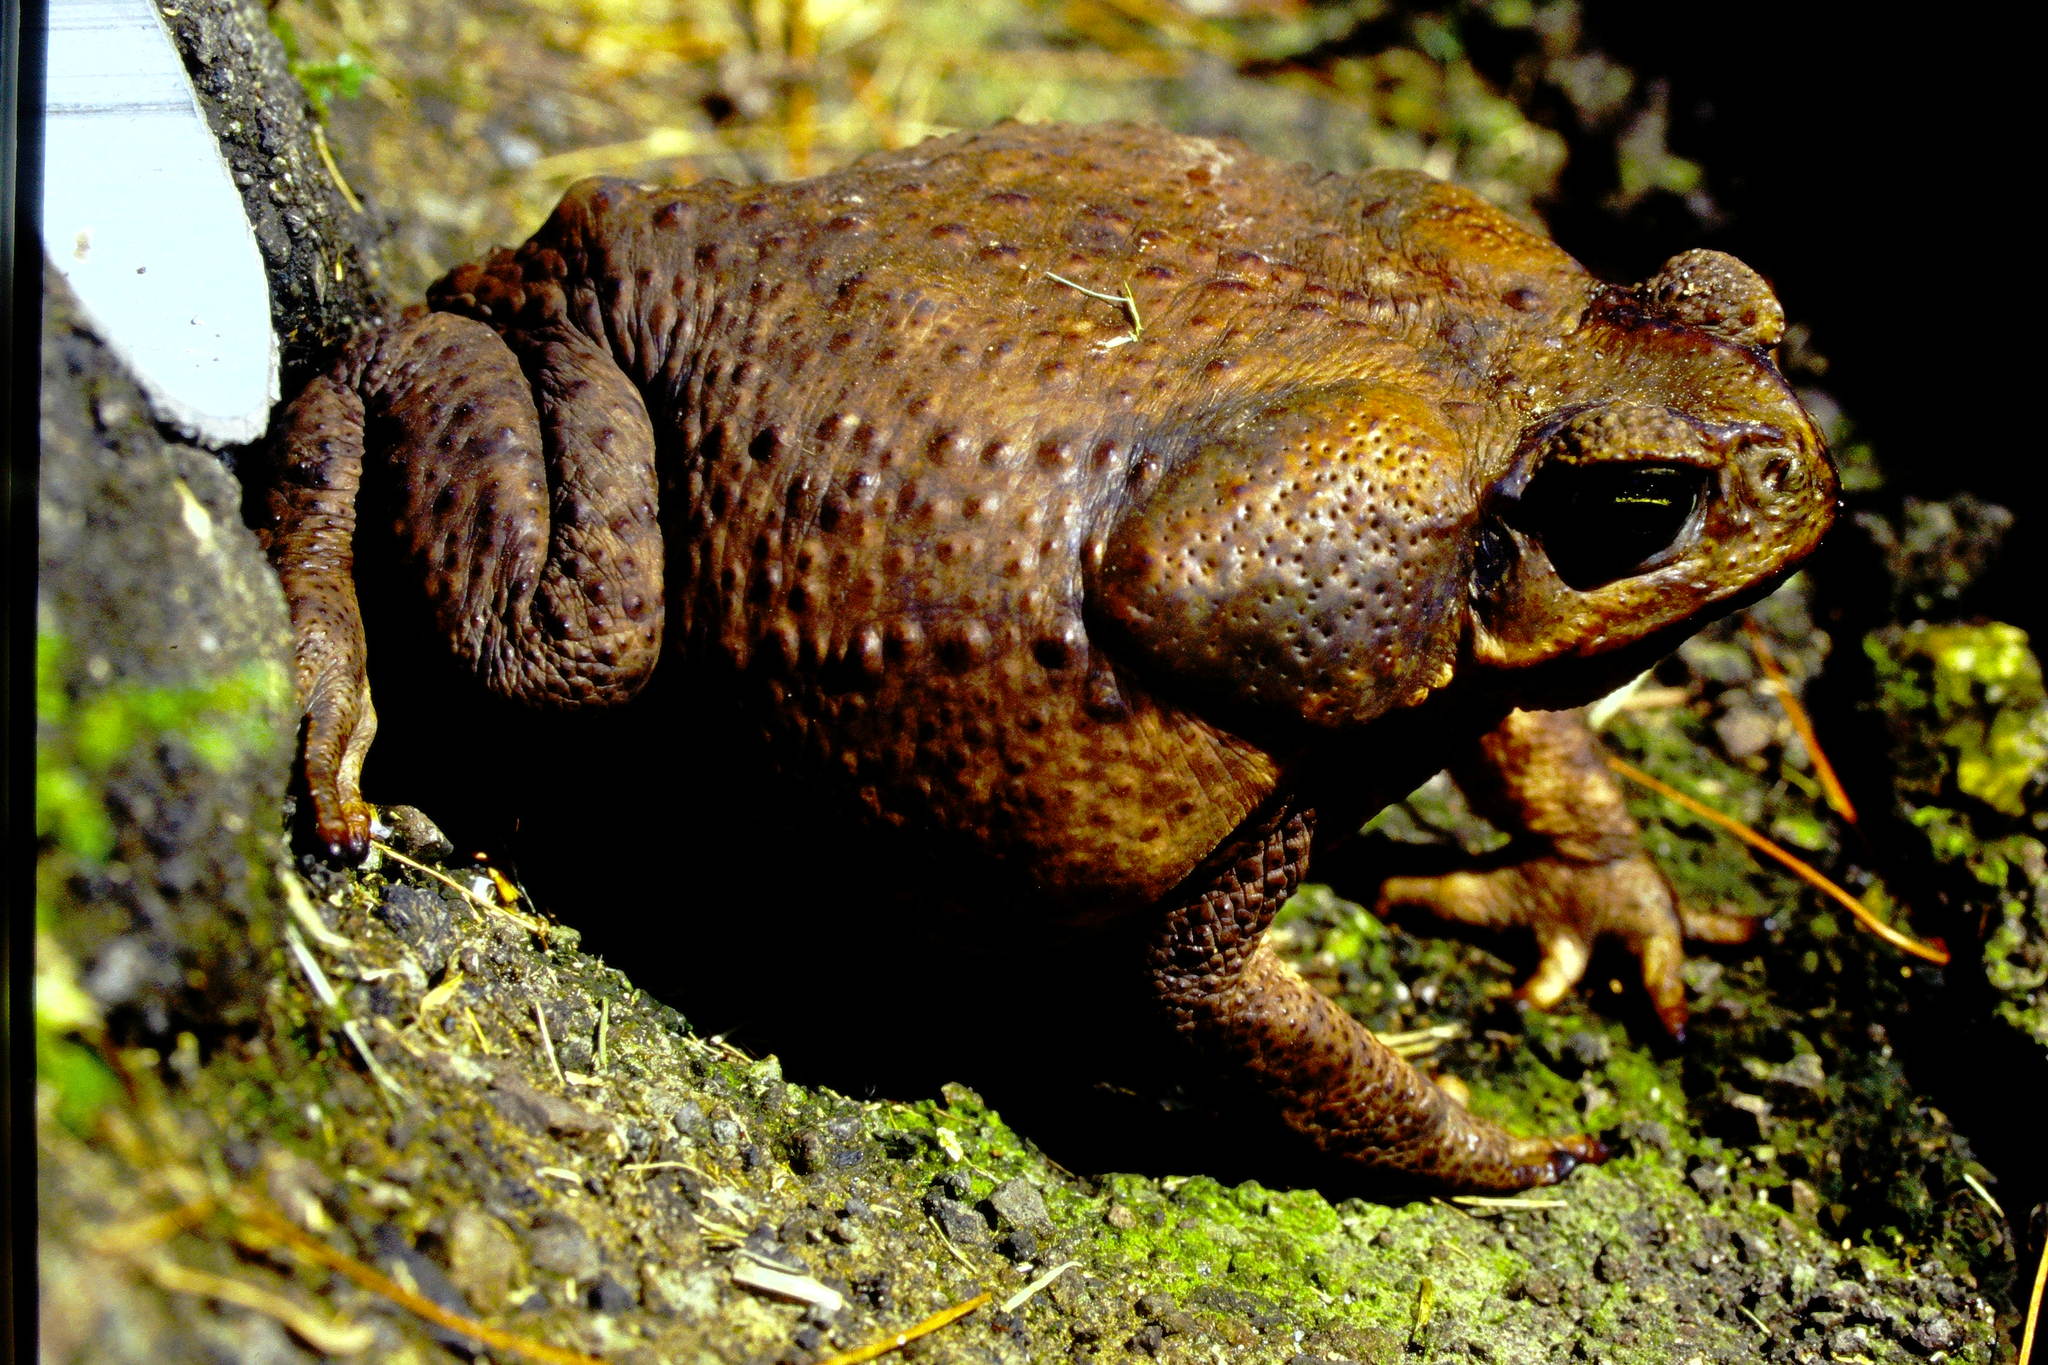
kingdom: Animalia
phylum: Chordata
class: Amphibia
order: Anura
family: Bufonidae
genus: Rhinella
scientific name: Rhinella horribilis
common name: Mesoamerican cane toad
